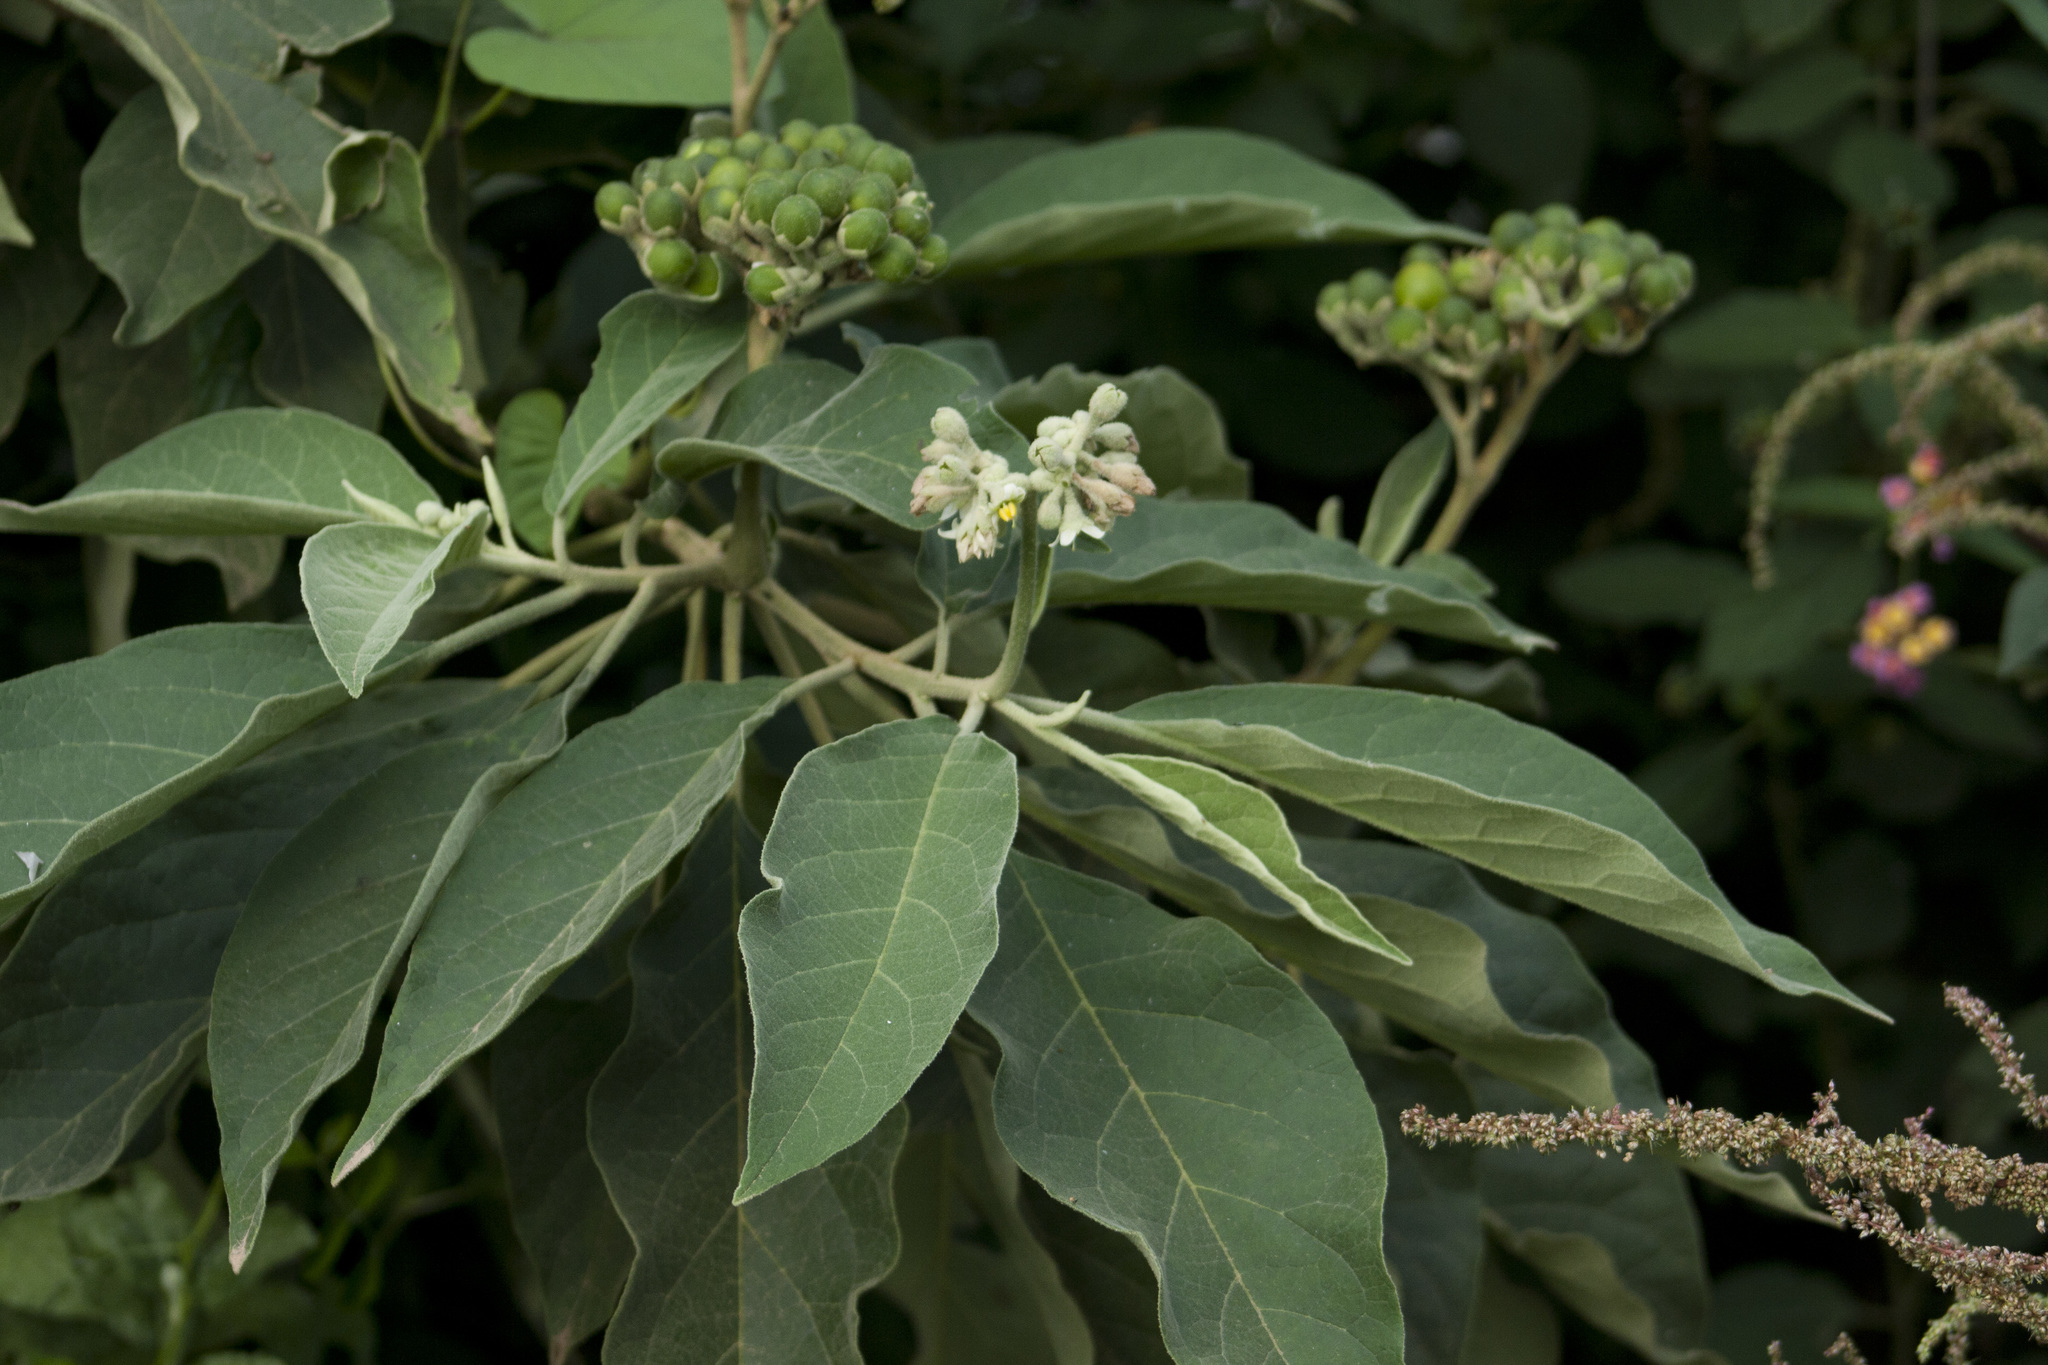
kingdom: Plantae
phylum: Tracheophyta
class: Magnoliopsida
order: Solanales
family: Solanaceae
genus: Solanum
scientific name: Solanum erianthum
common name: Tobacco-tree
